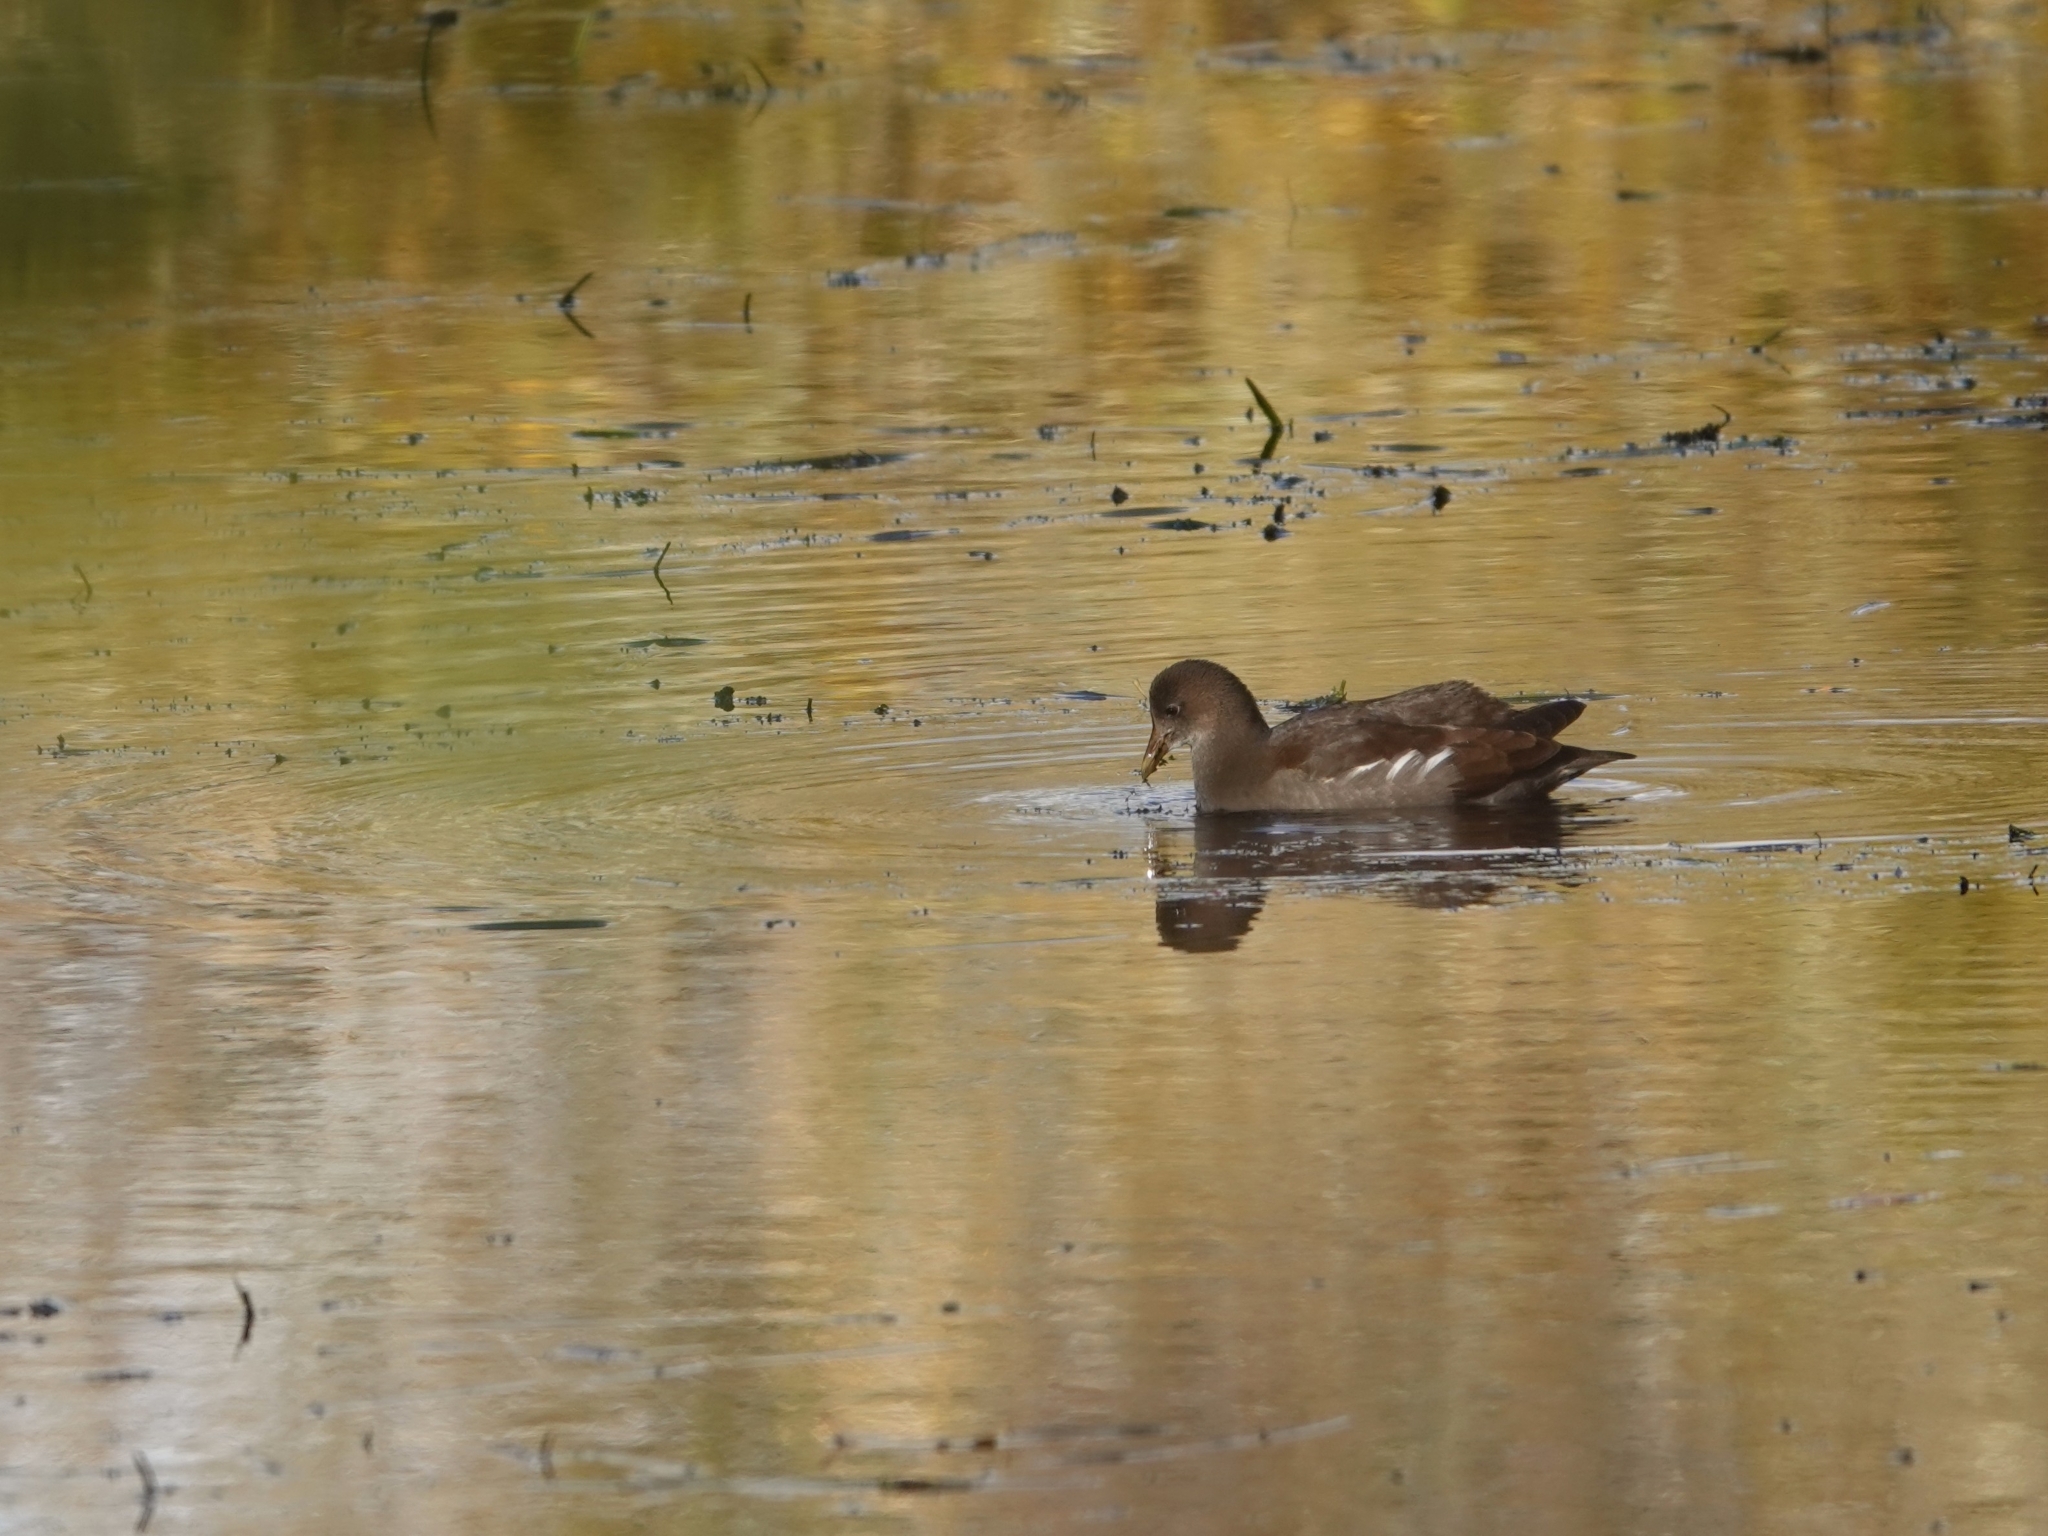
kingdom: Animalia
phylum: Chordata
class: Aves
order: Gruiformes
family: Rallidae
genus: Gallinula
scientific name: Gallinula chloropus
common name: Common moorhen
